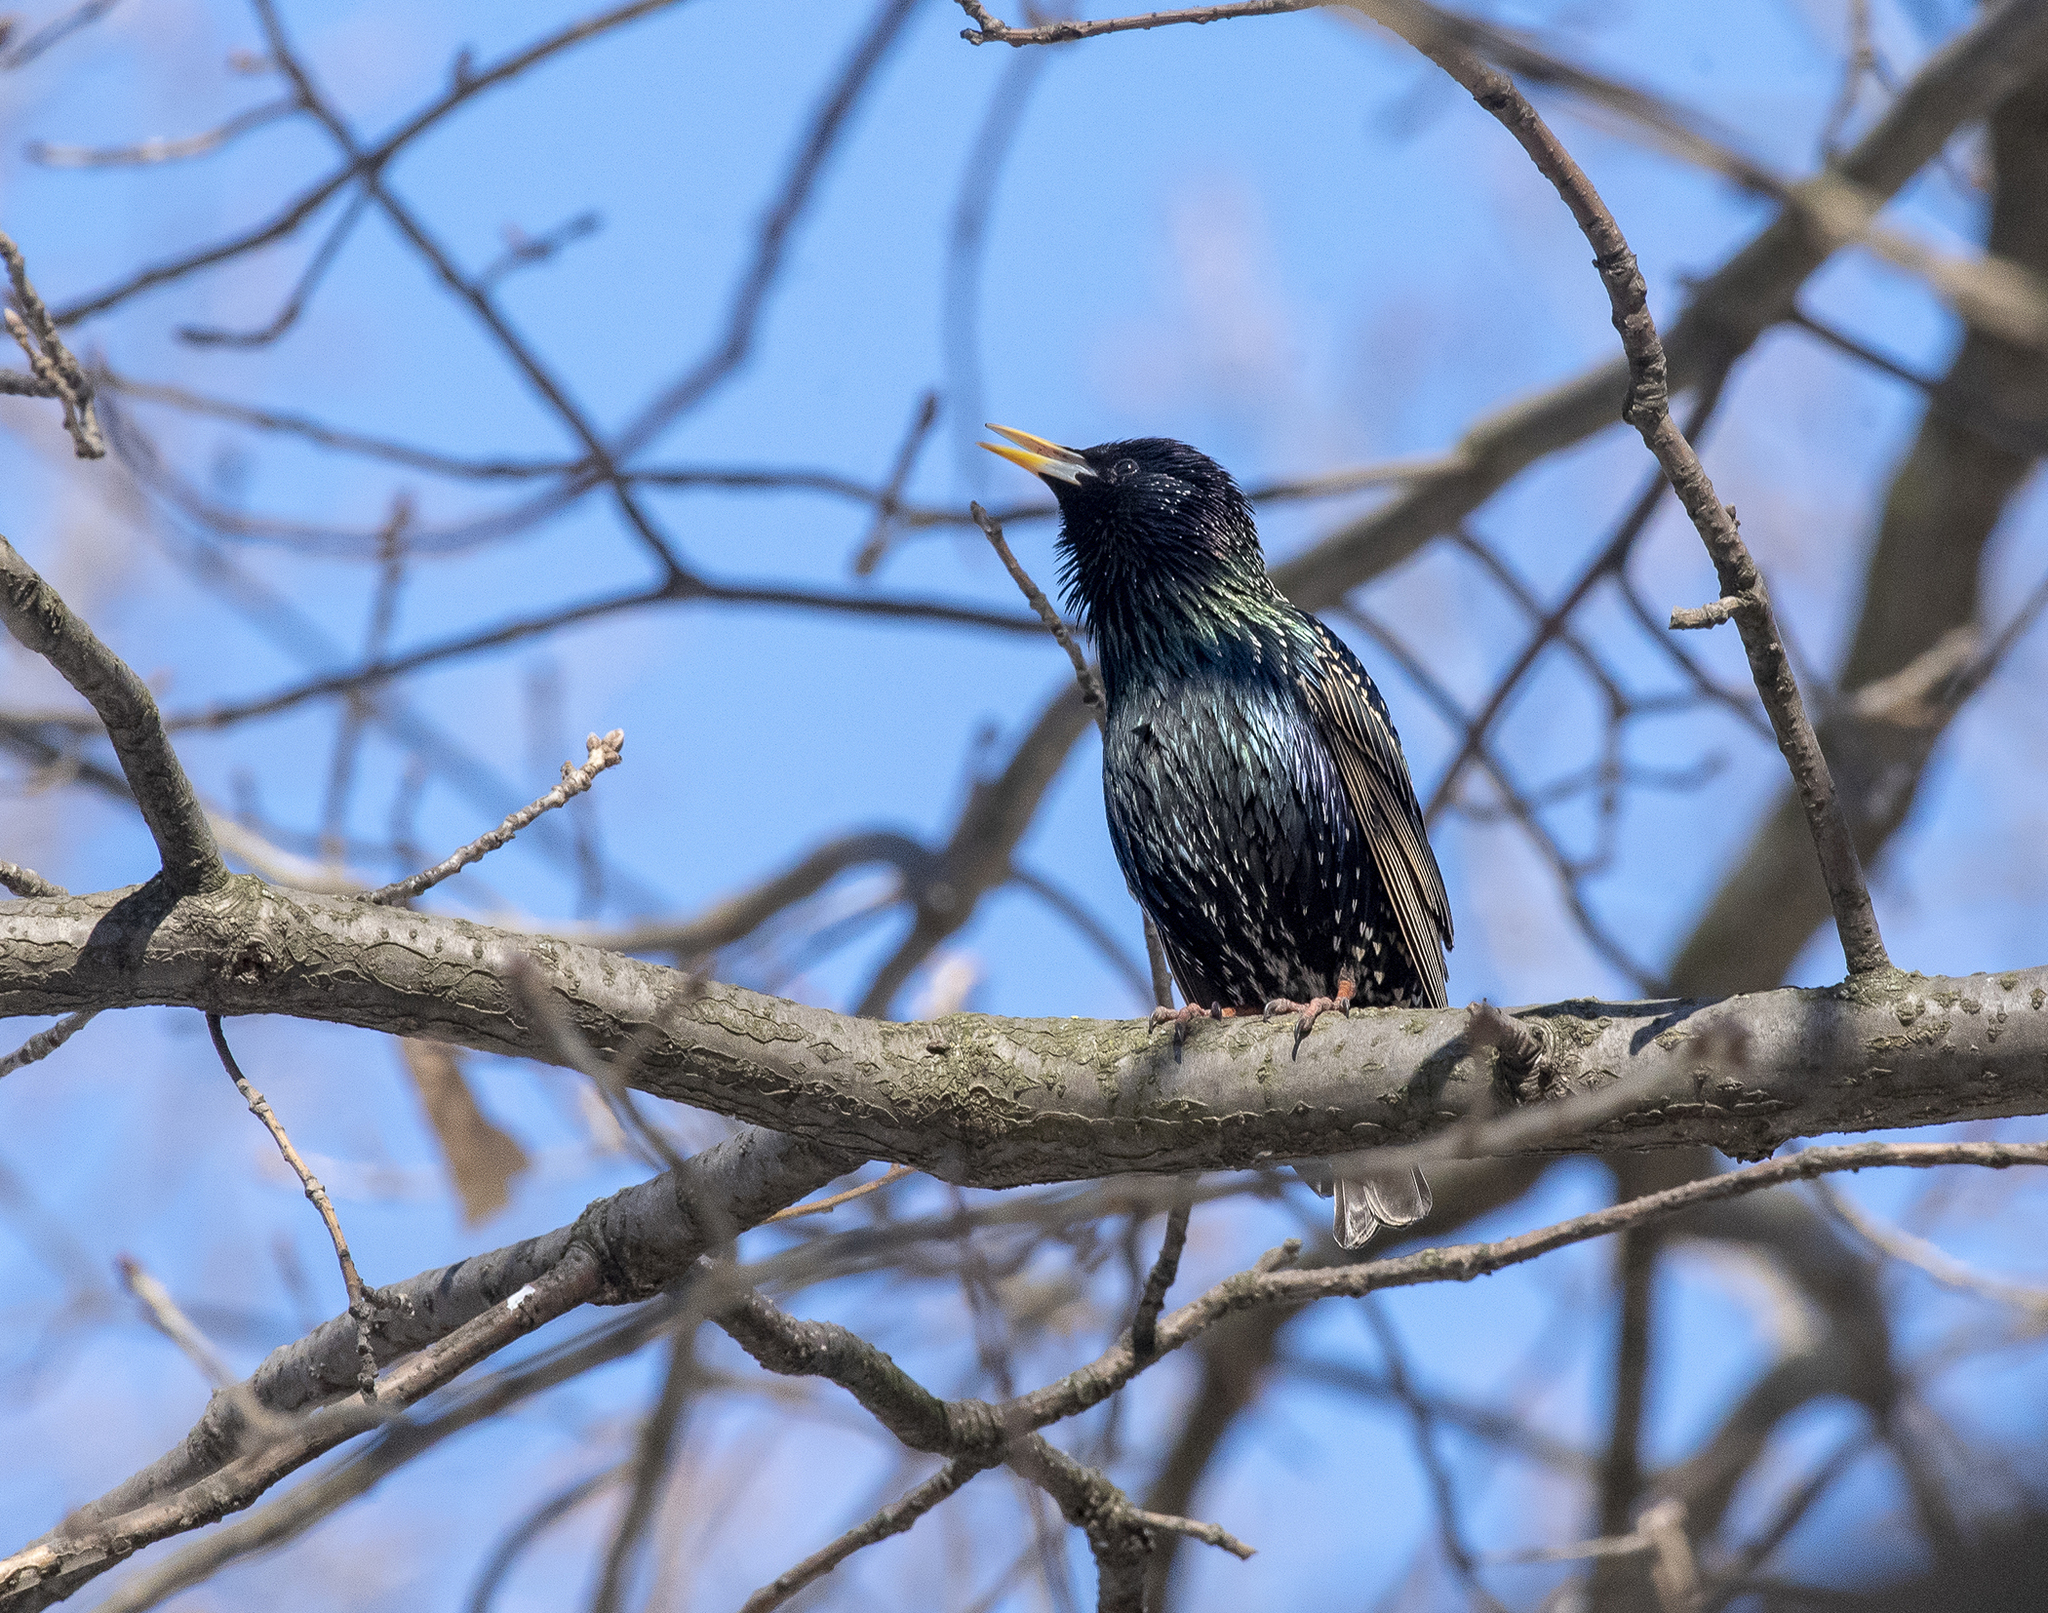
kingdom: Animalia
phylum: Chordata
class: Aves
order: Passeriformes
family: Sturnidae
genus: Sturnus
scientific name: Sturnus vulgaris
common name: Common starling
